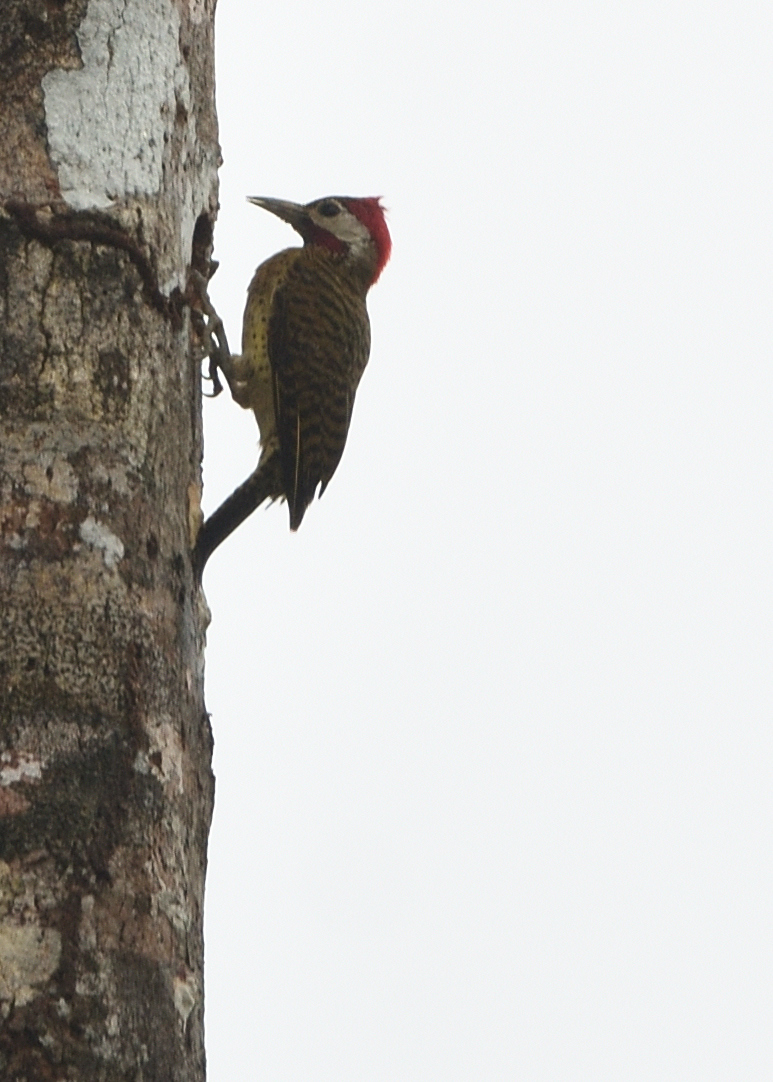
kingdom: Animalia
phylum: Chordata
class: Aves
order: Piciformes
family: Picidae
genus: Colaptes
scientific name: Colaptes punctigula
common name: Spot-breasted woodpecker
